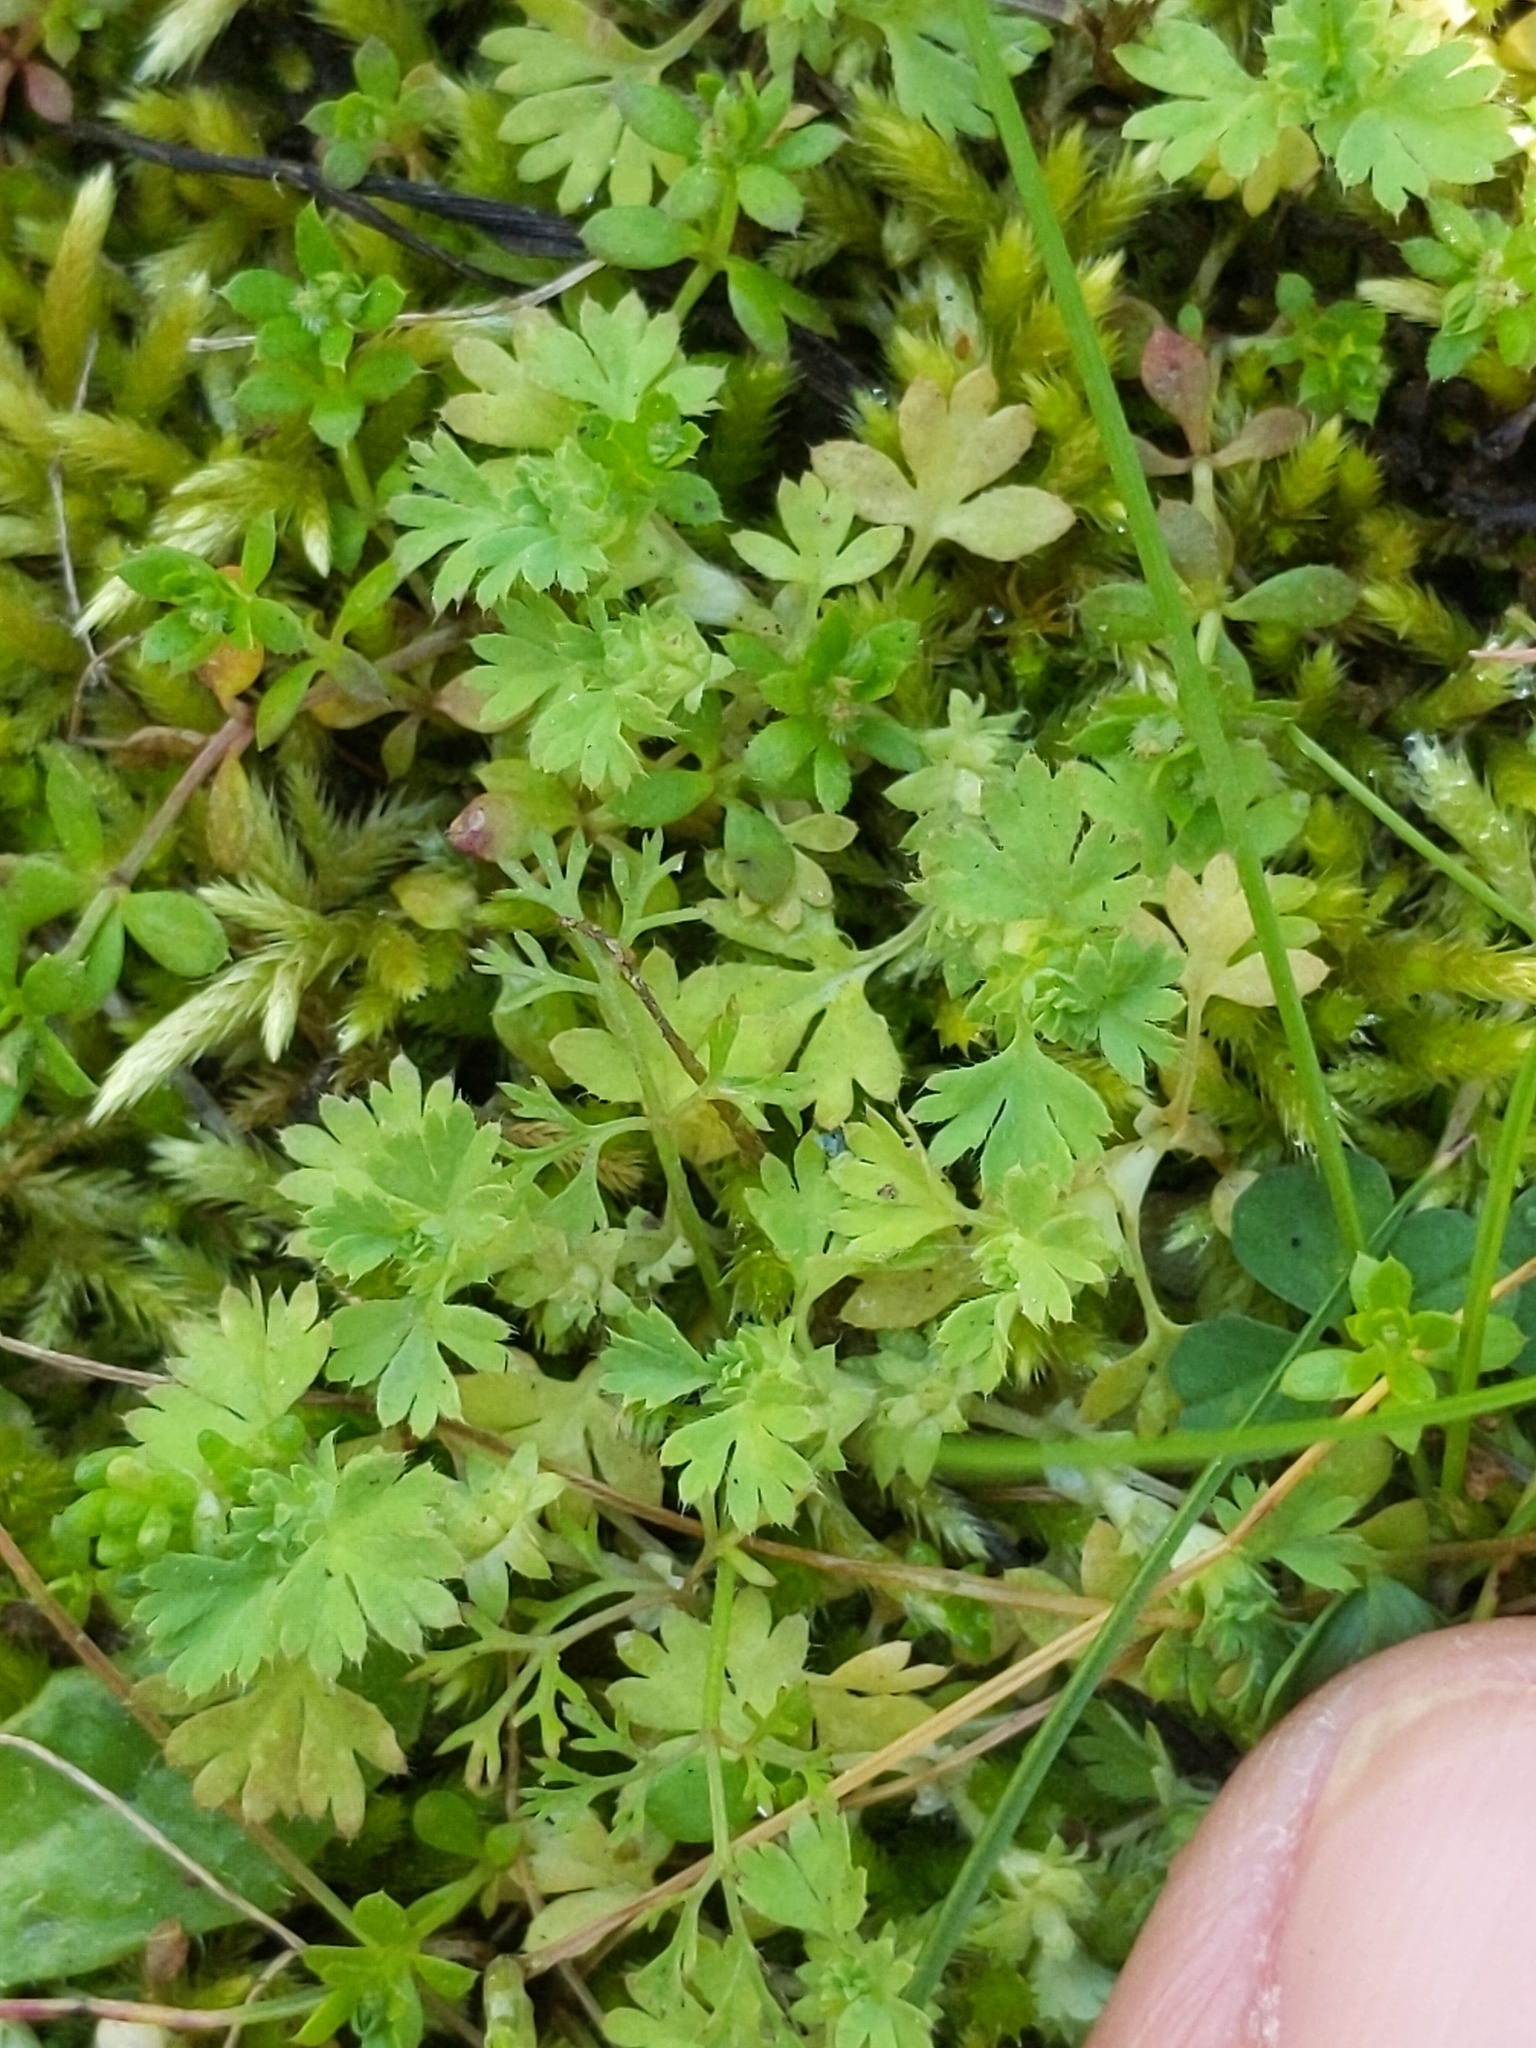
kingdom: Plantae
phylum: Tracheophyta
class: Magnoliopsida
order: Rosales
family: Rosaceae
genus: Aphanes
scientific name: Aphanes arvensis
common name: Parsley-piert
